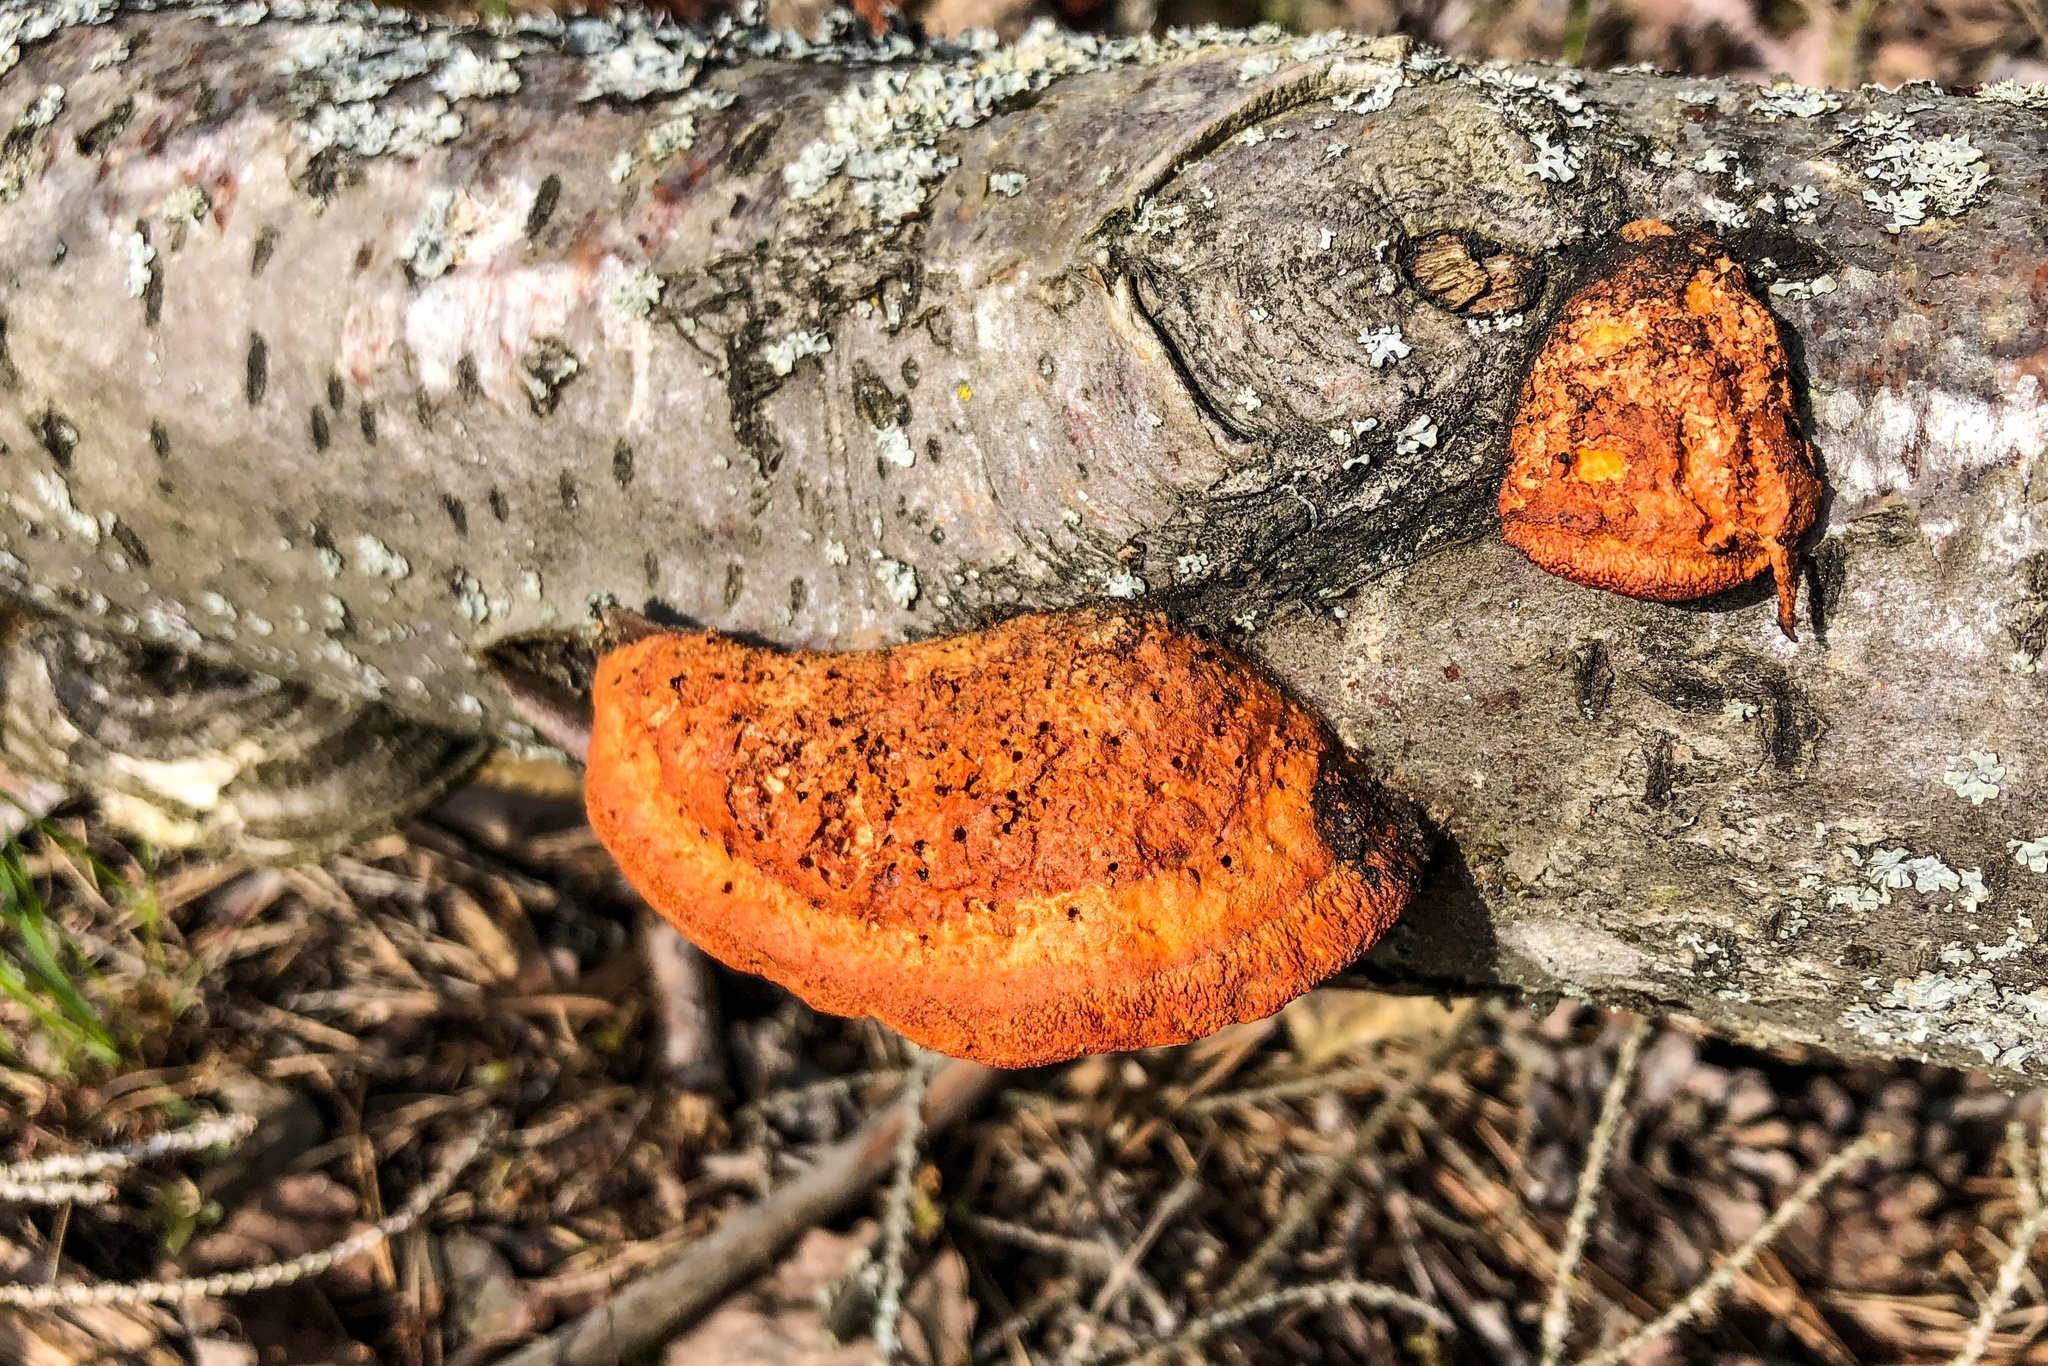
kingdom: Fungi
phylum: Basidiomycota
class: Agaricomycetes
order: Polyporales
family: Polyporaceae
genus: Trametes
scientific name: Trametes cinnabarina
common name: Northern cinnabar polypore
